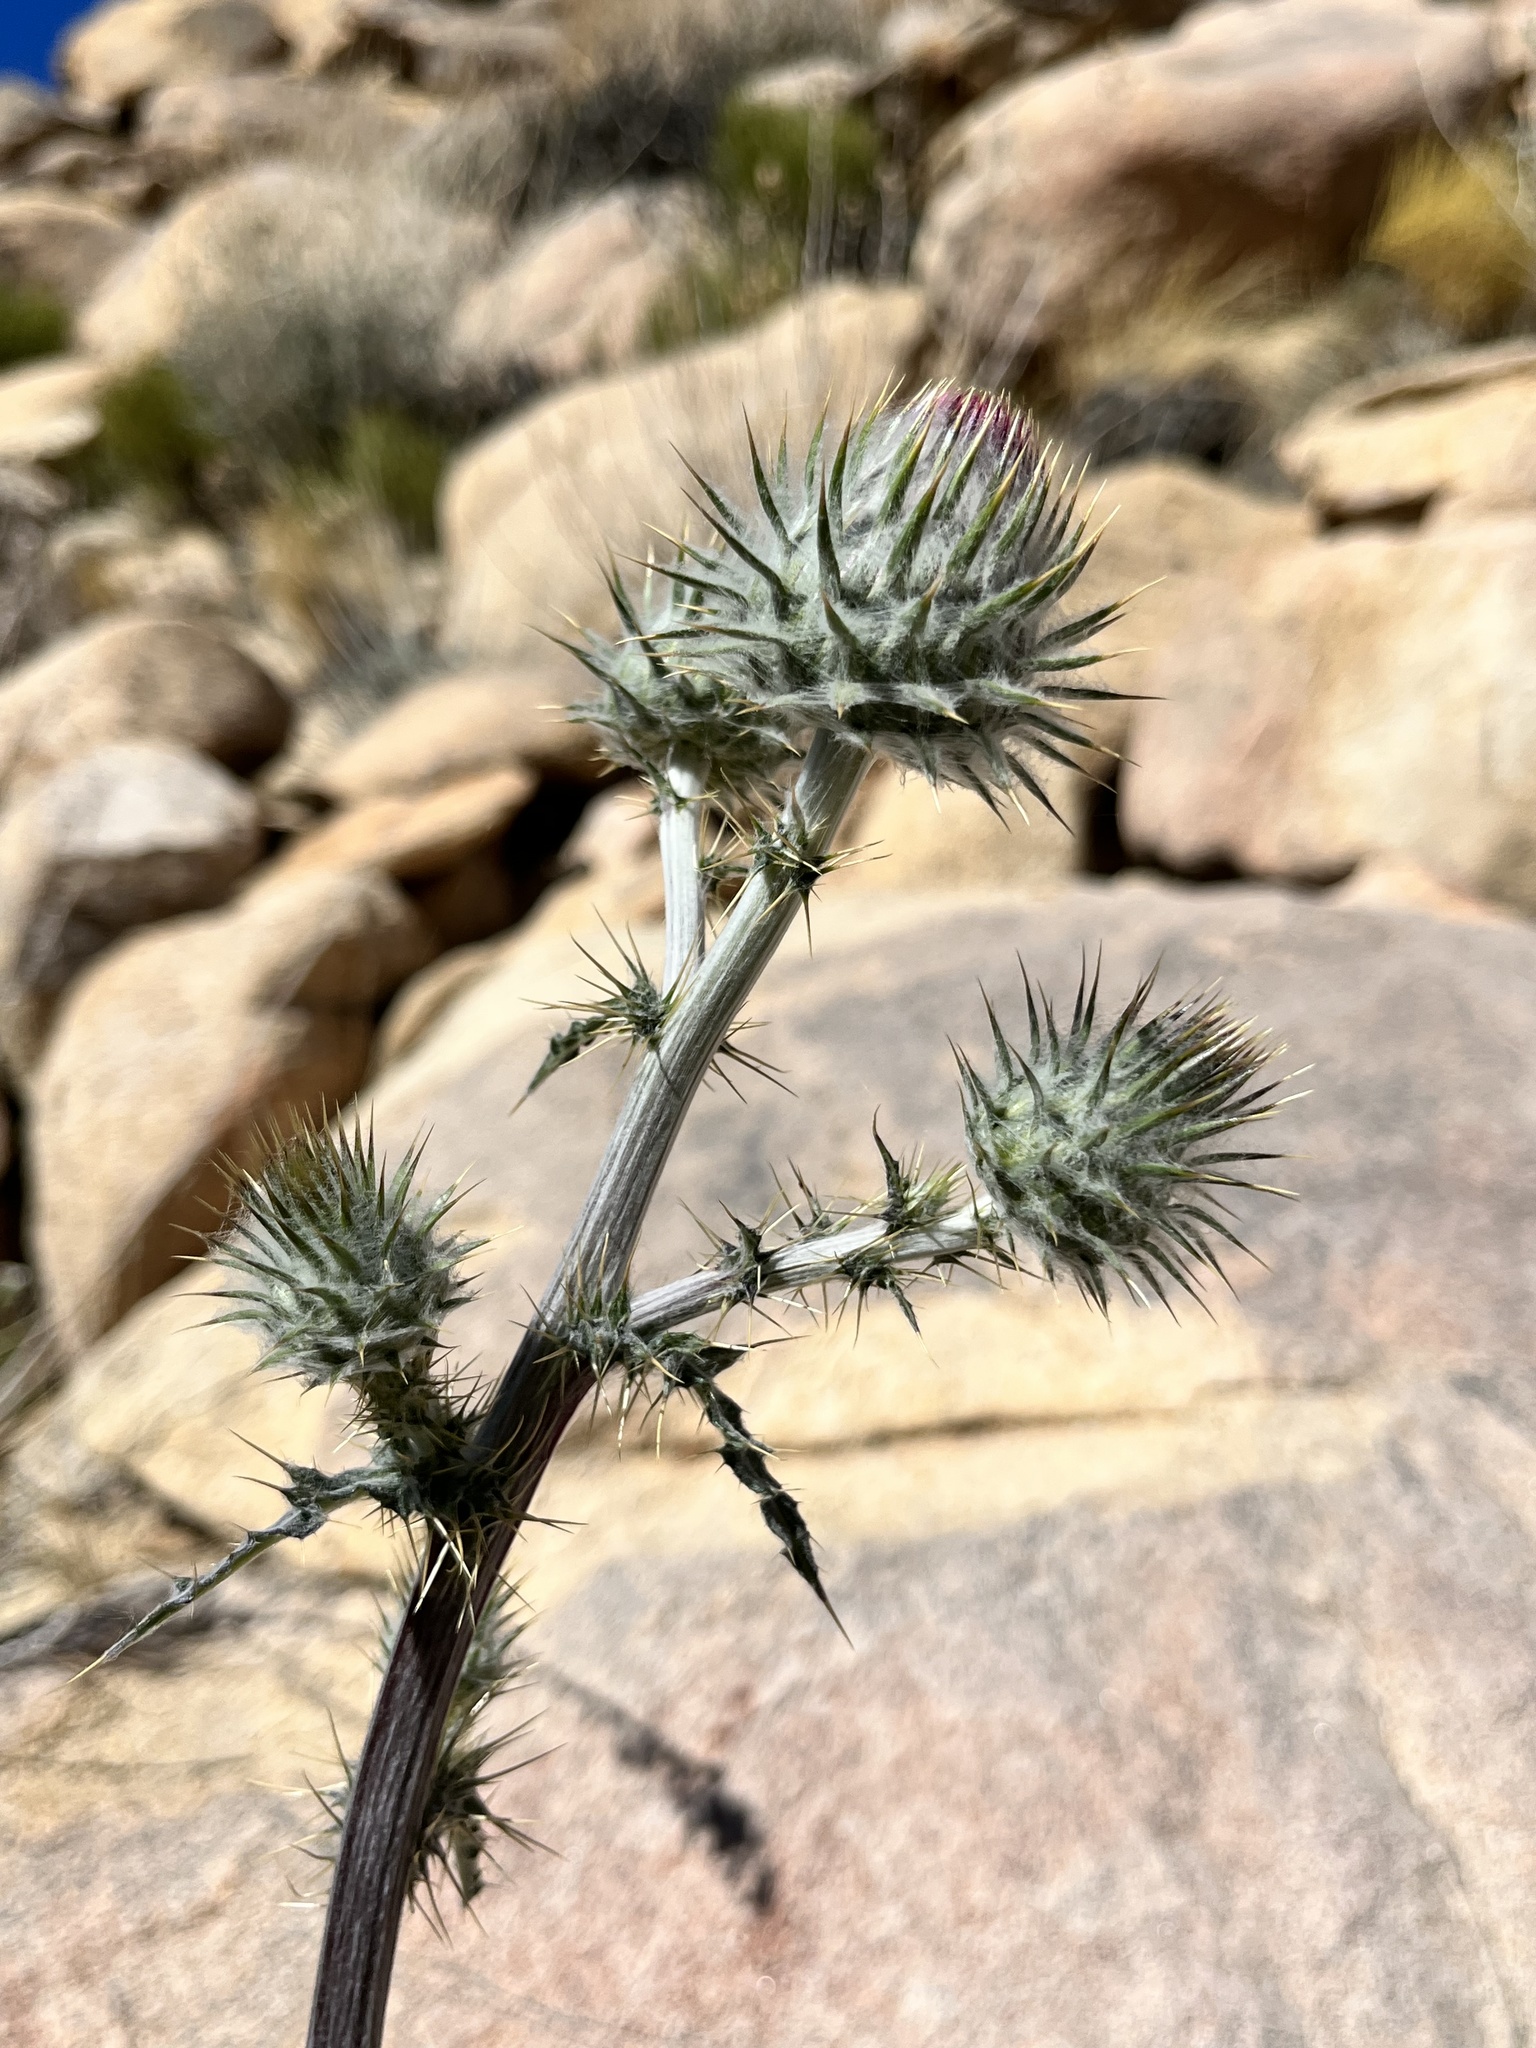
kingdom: Plantae
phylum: Tracheophyta
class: Magnoliopsida
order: Asterales
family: Asteraceae
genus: Cirsium
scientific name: Cirsium occidentale
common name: Western thistle
